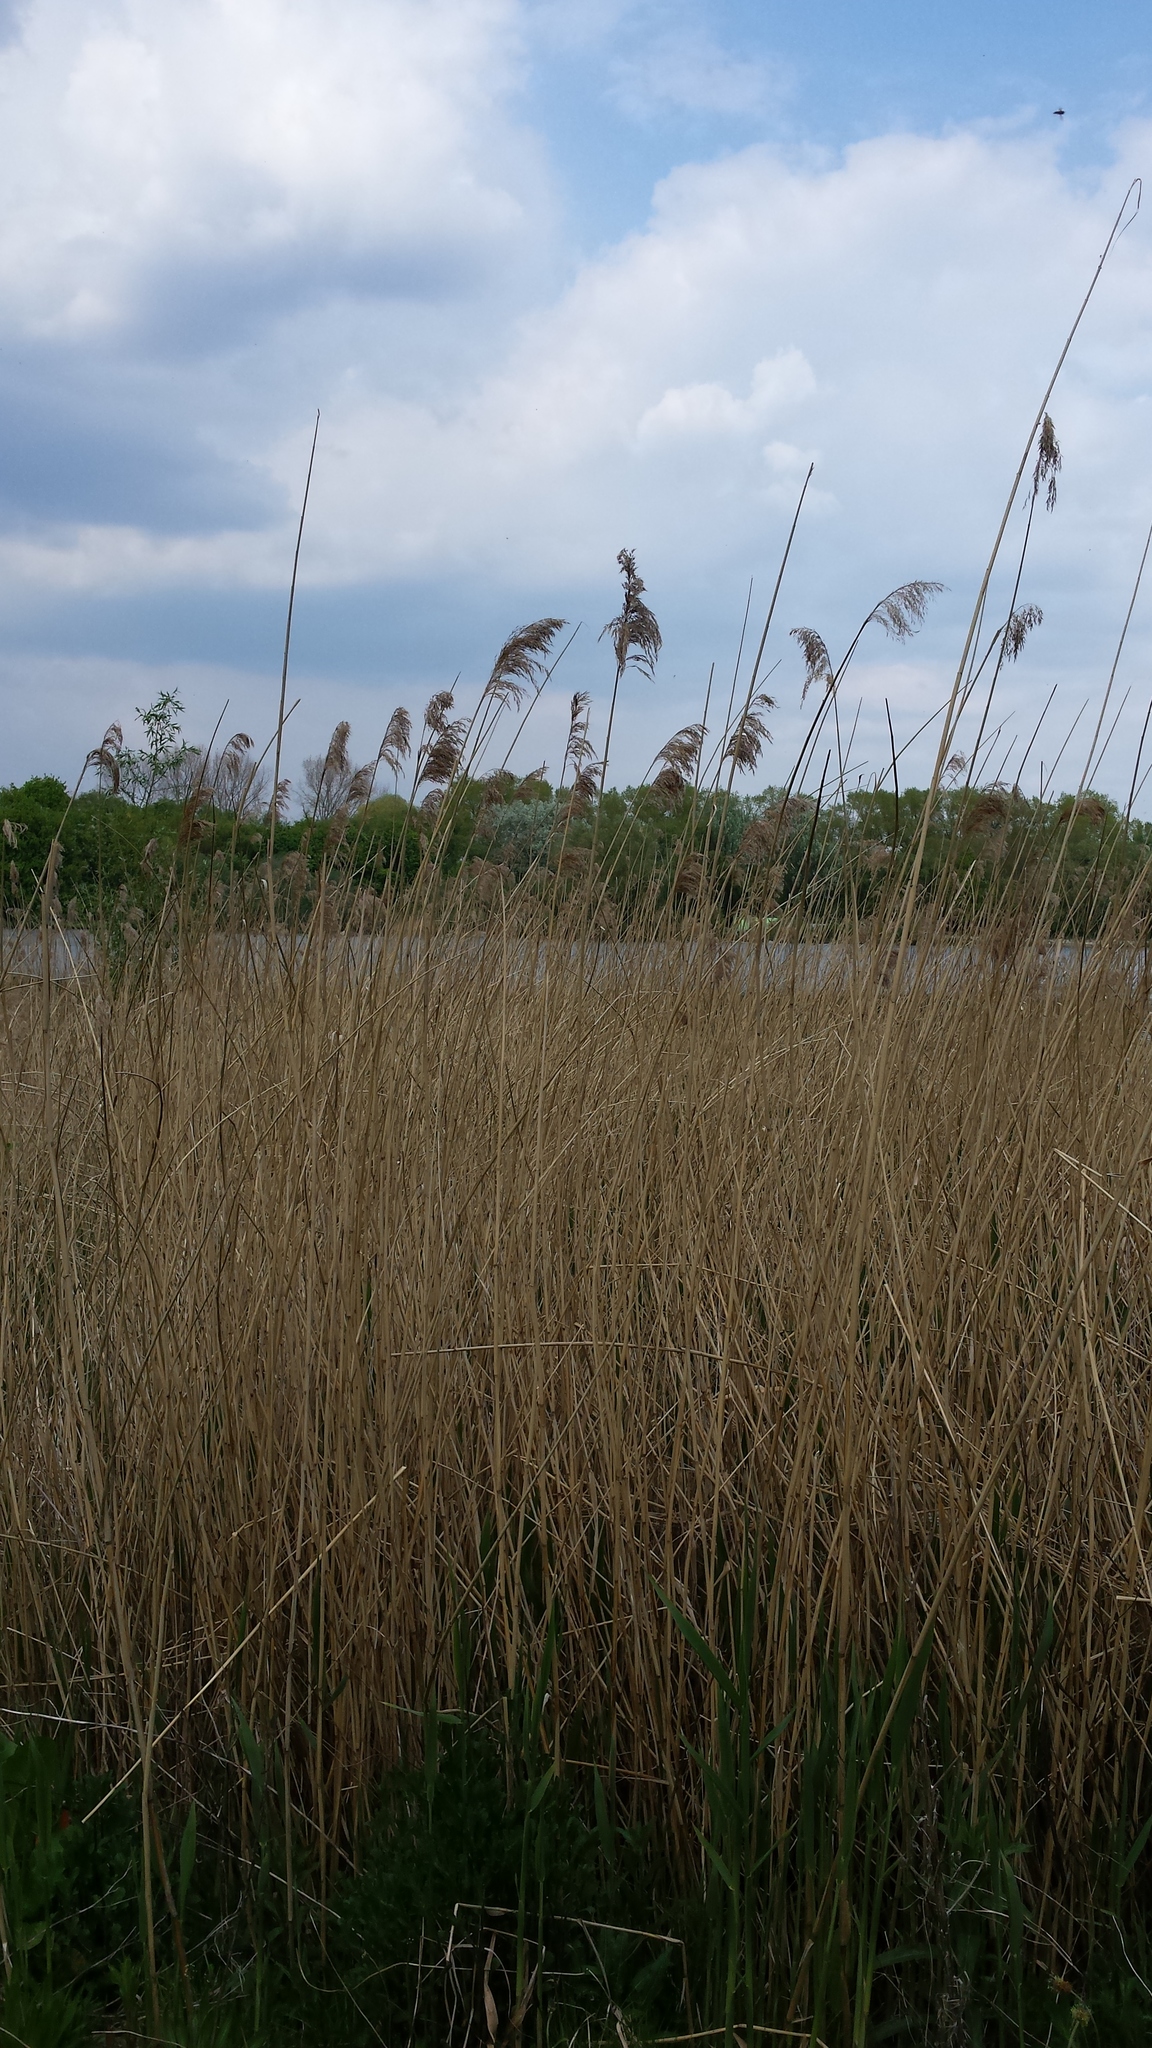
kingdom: Plantae
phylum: Tracheophyta
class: Liliopsida
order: Poales
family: Poaceae
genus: Phragmites
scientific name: Phragmites australis
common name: Common reed
